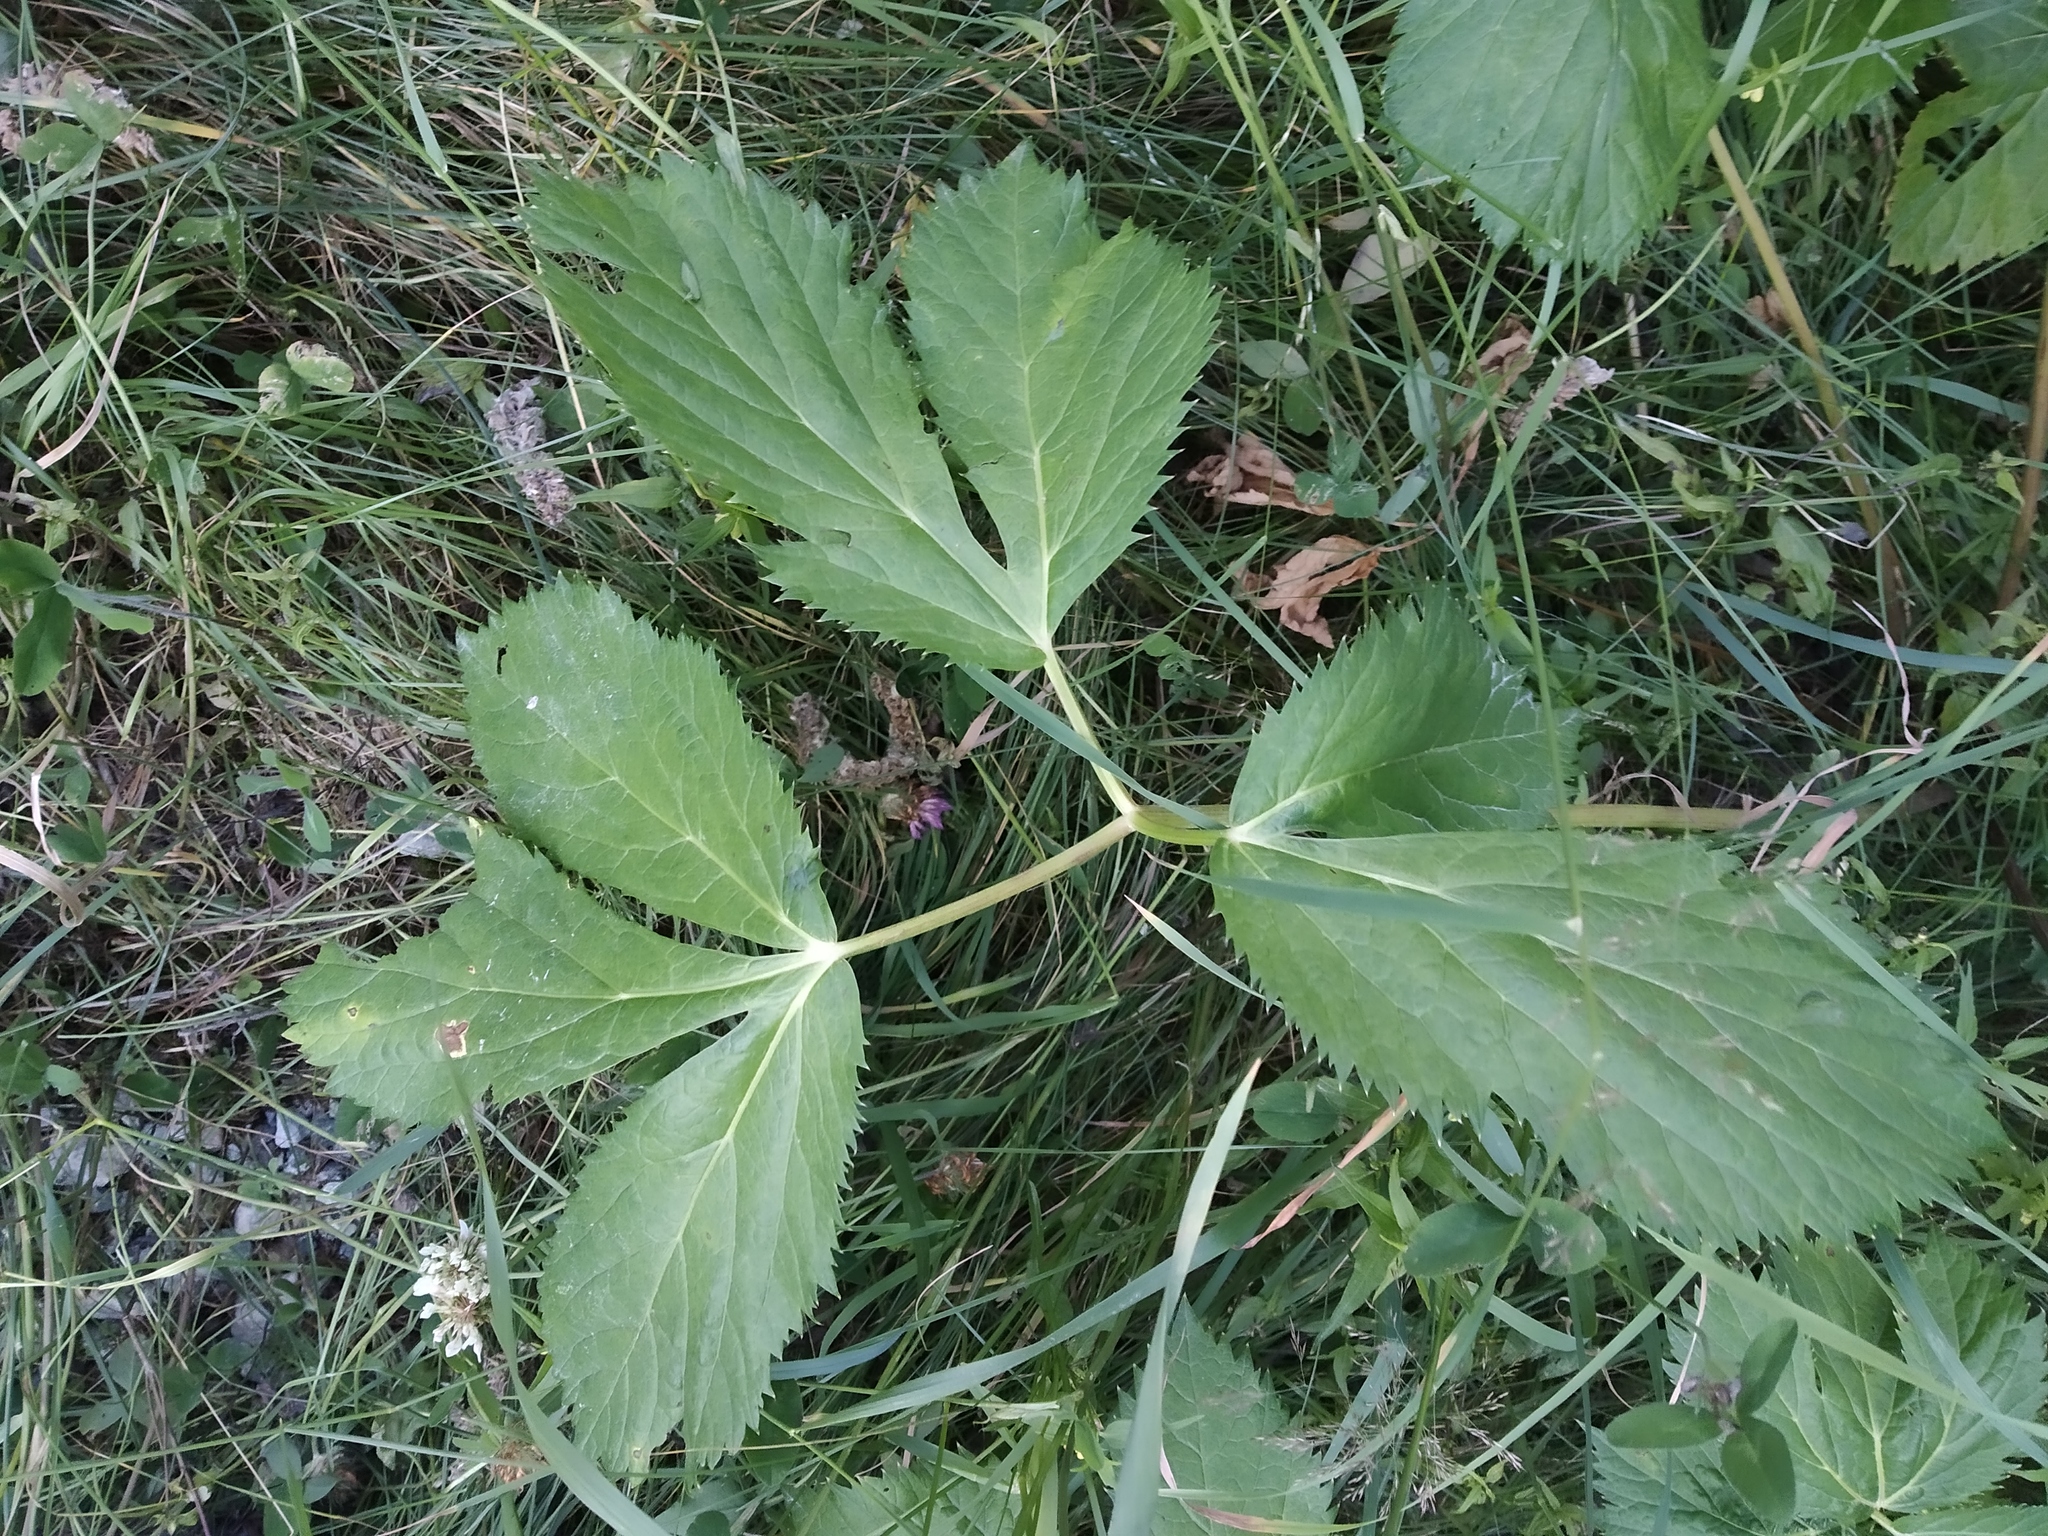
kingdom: Plantae
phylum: Tracheophyta
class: Magnoliopsida
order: Apiales
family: Apiaceae
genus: Imperatoria
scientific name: Imperatoria ostruthium
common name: Masterwort
